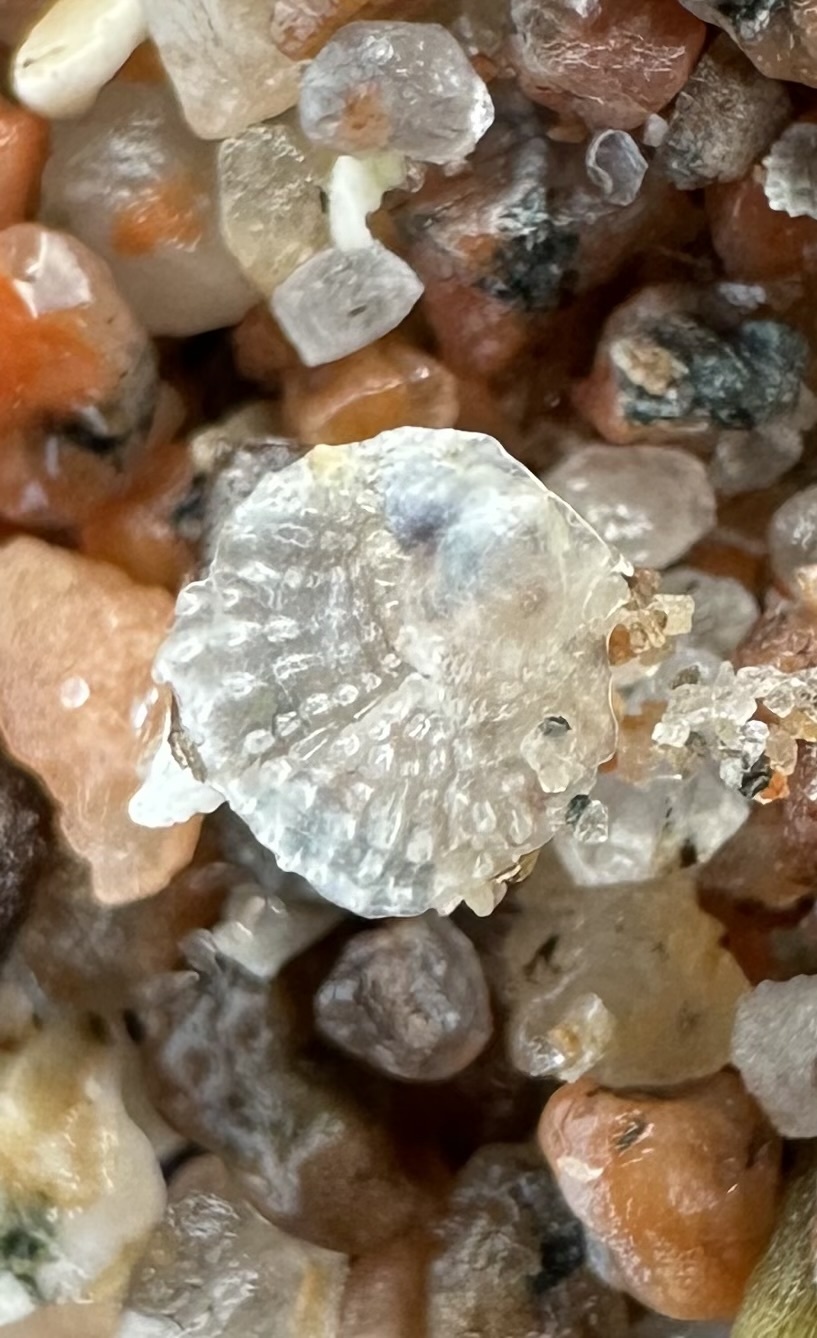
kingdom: Animalia
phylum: Mollusca
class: Bivalvia
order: Pectinida
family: Anomiidae
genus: Heteranomia
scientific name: Heteranomia squamula
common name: Prickly jingle
